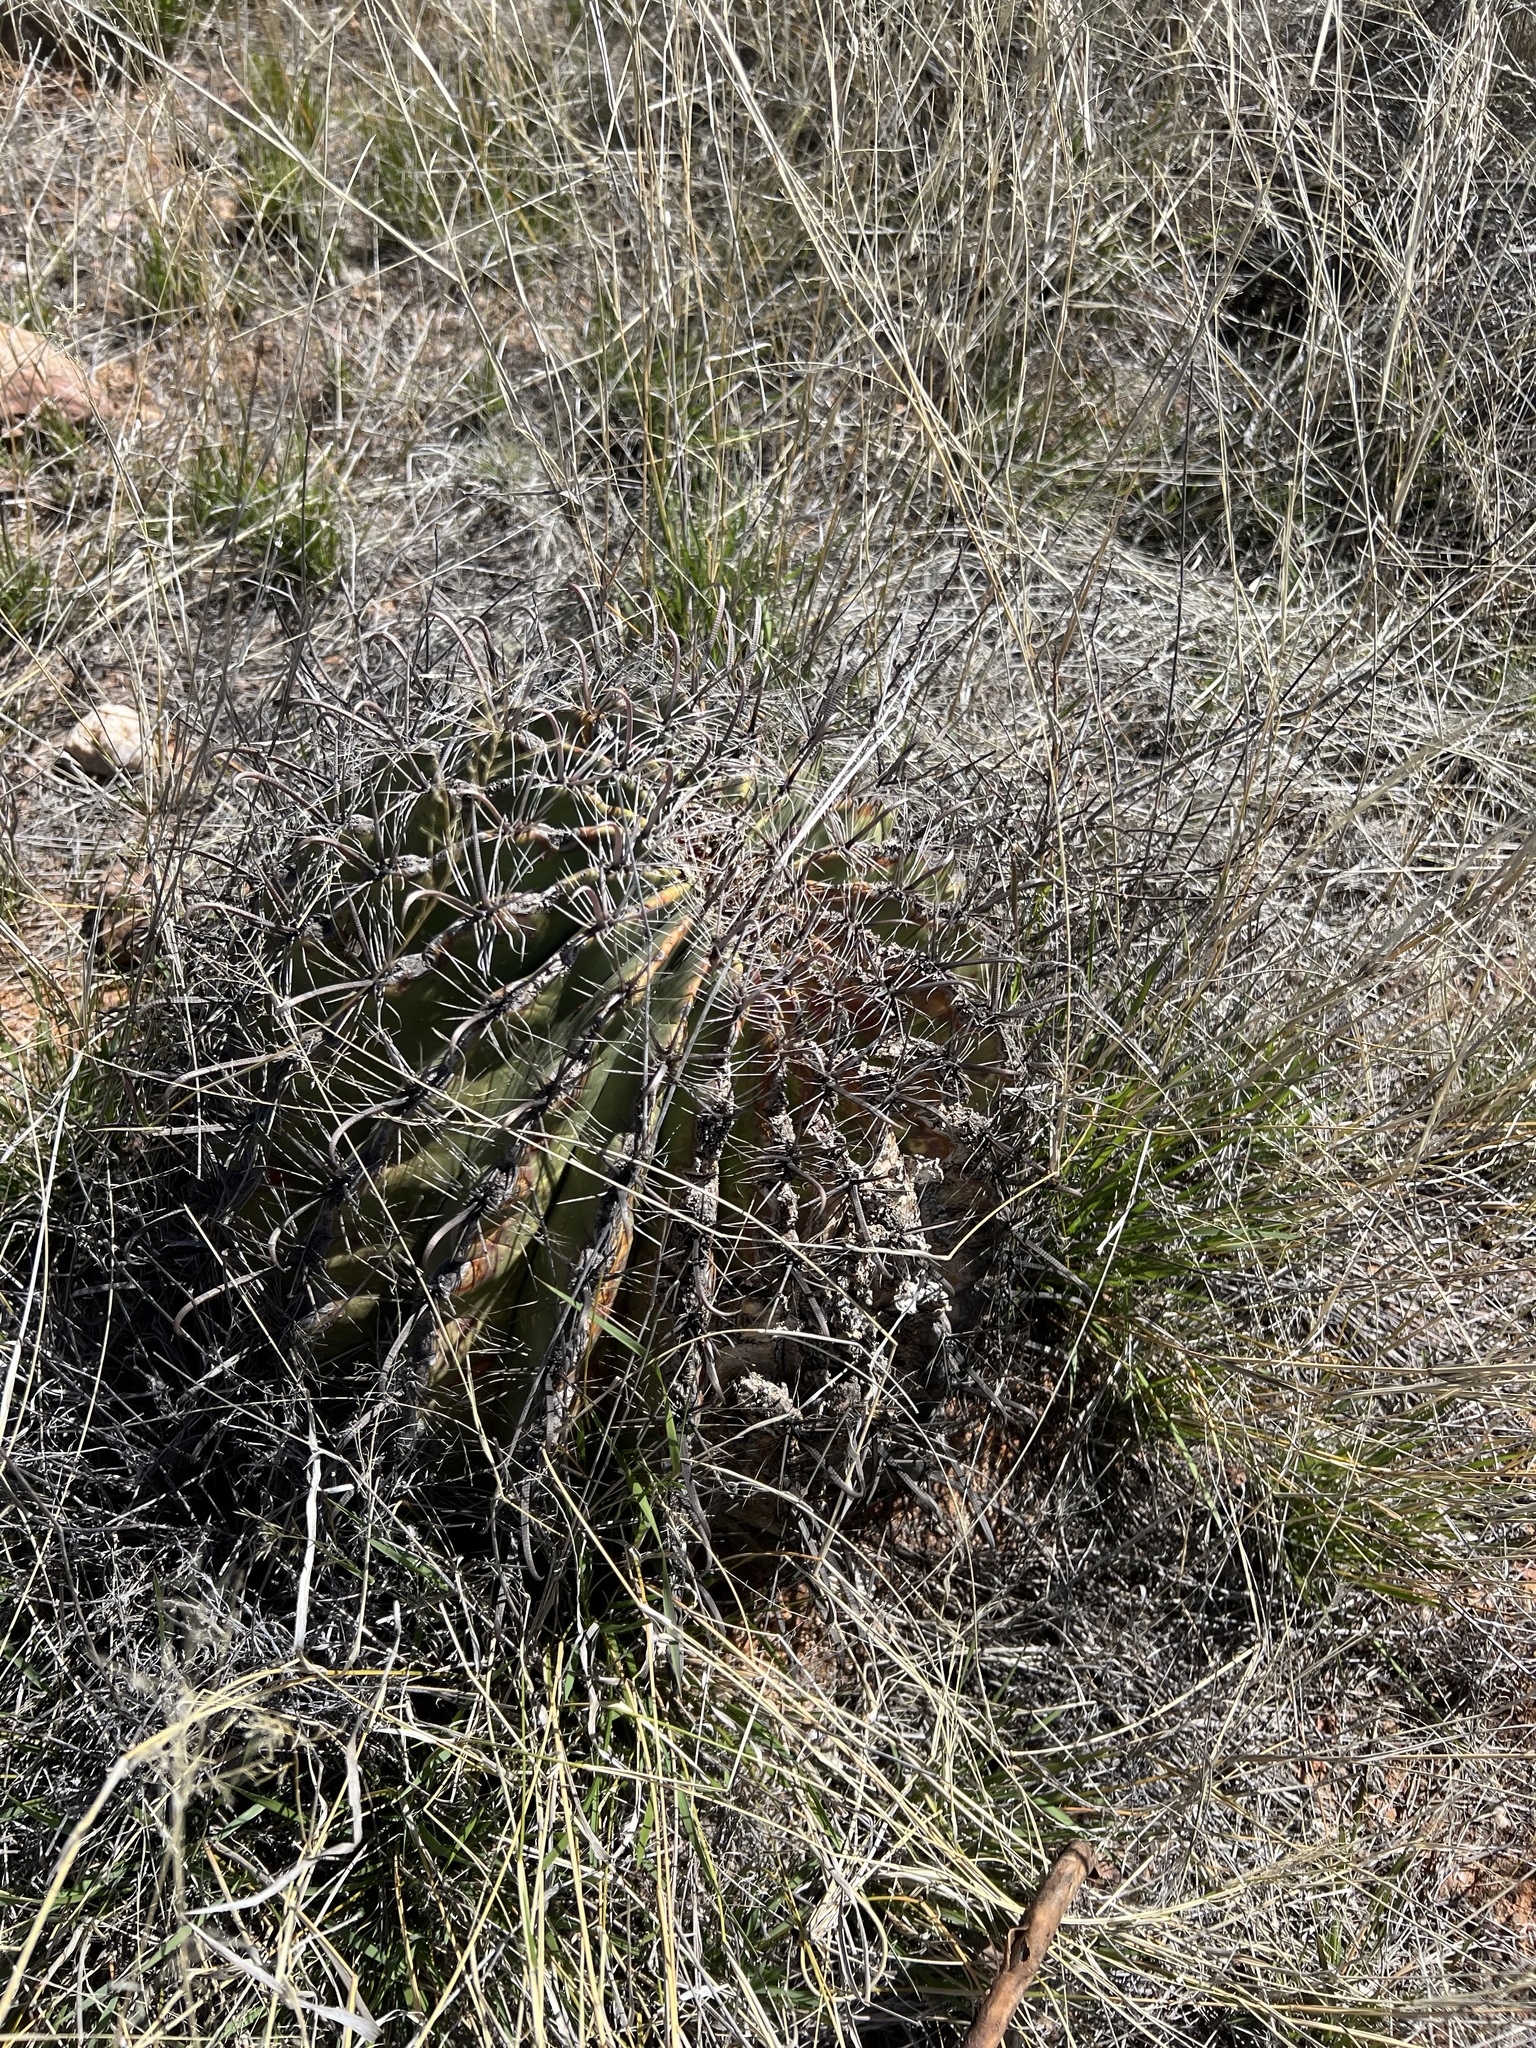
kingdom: Plantae
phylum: Tracheophyta
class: Magnoliopsida
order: Caryophyllales
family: Cactaceae
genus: Ferocactus
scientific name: Ferocactus wislizeni
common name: Candy barrel cactus
